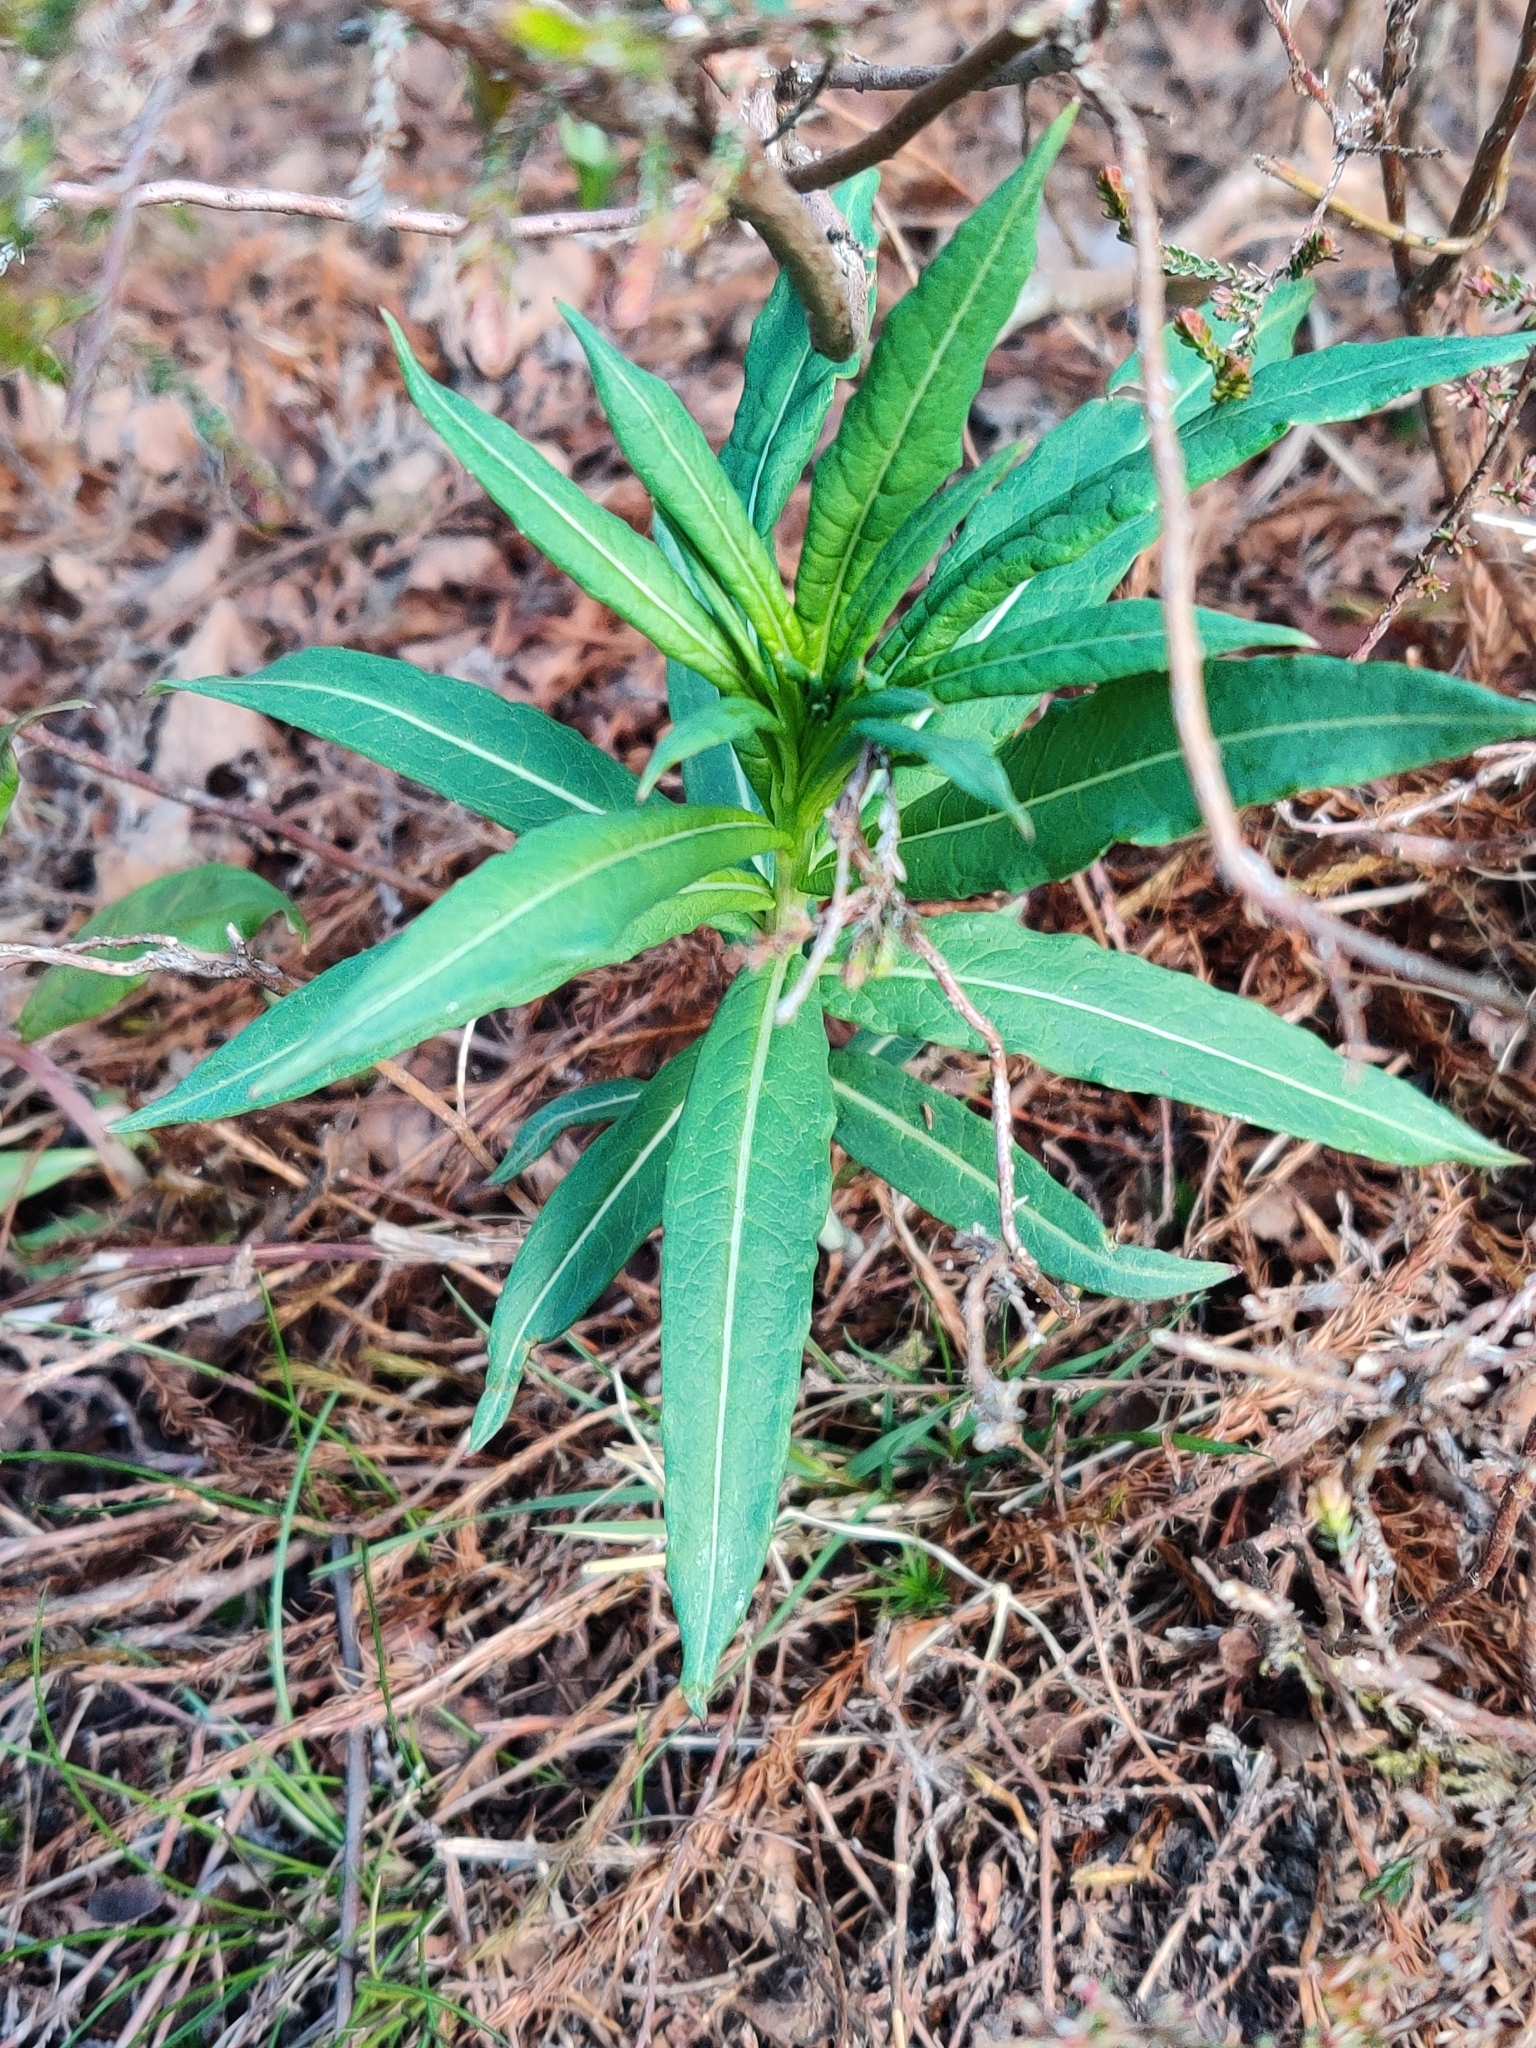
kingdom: Plantae
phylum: Tracheophyta
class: Magnoliopsida
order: Myrtales
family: Onagraceae
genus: Chamaenerion
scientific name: Chamaenerion angustifolium
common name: Fireweed
